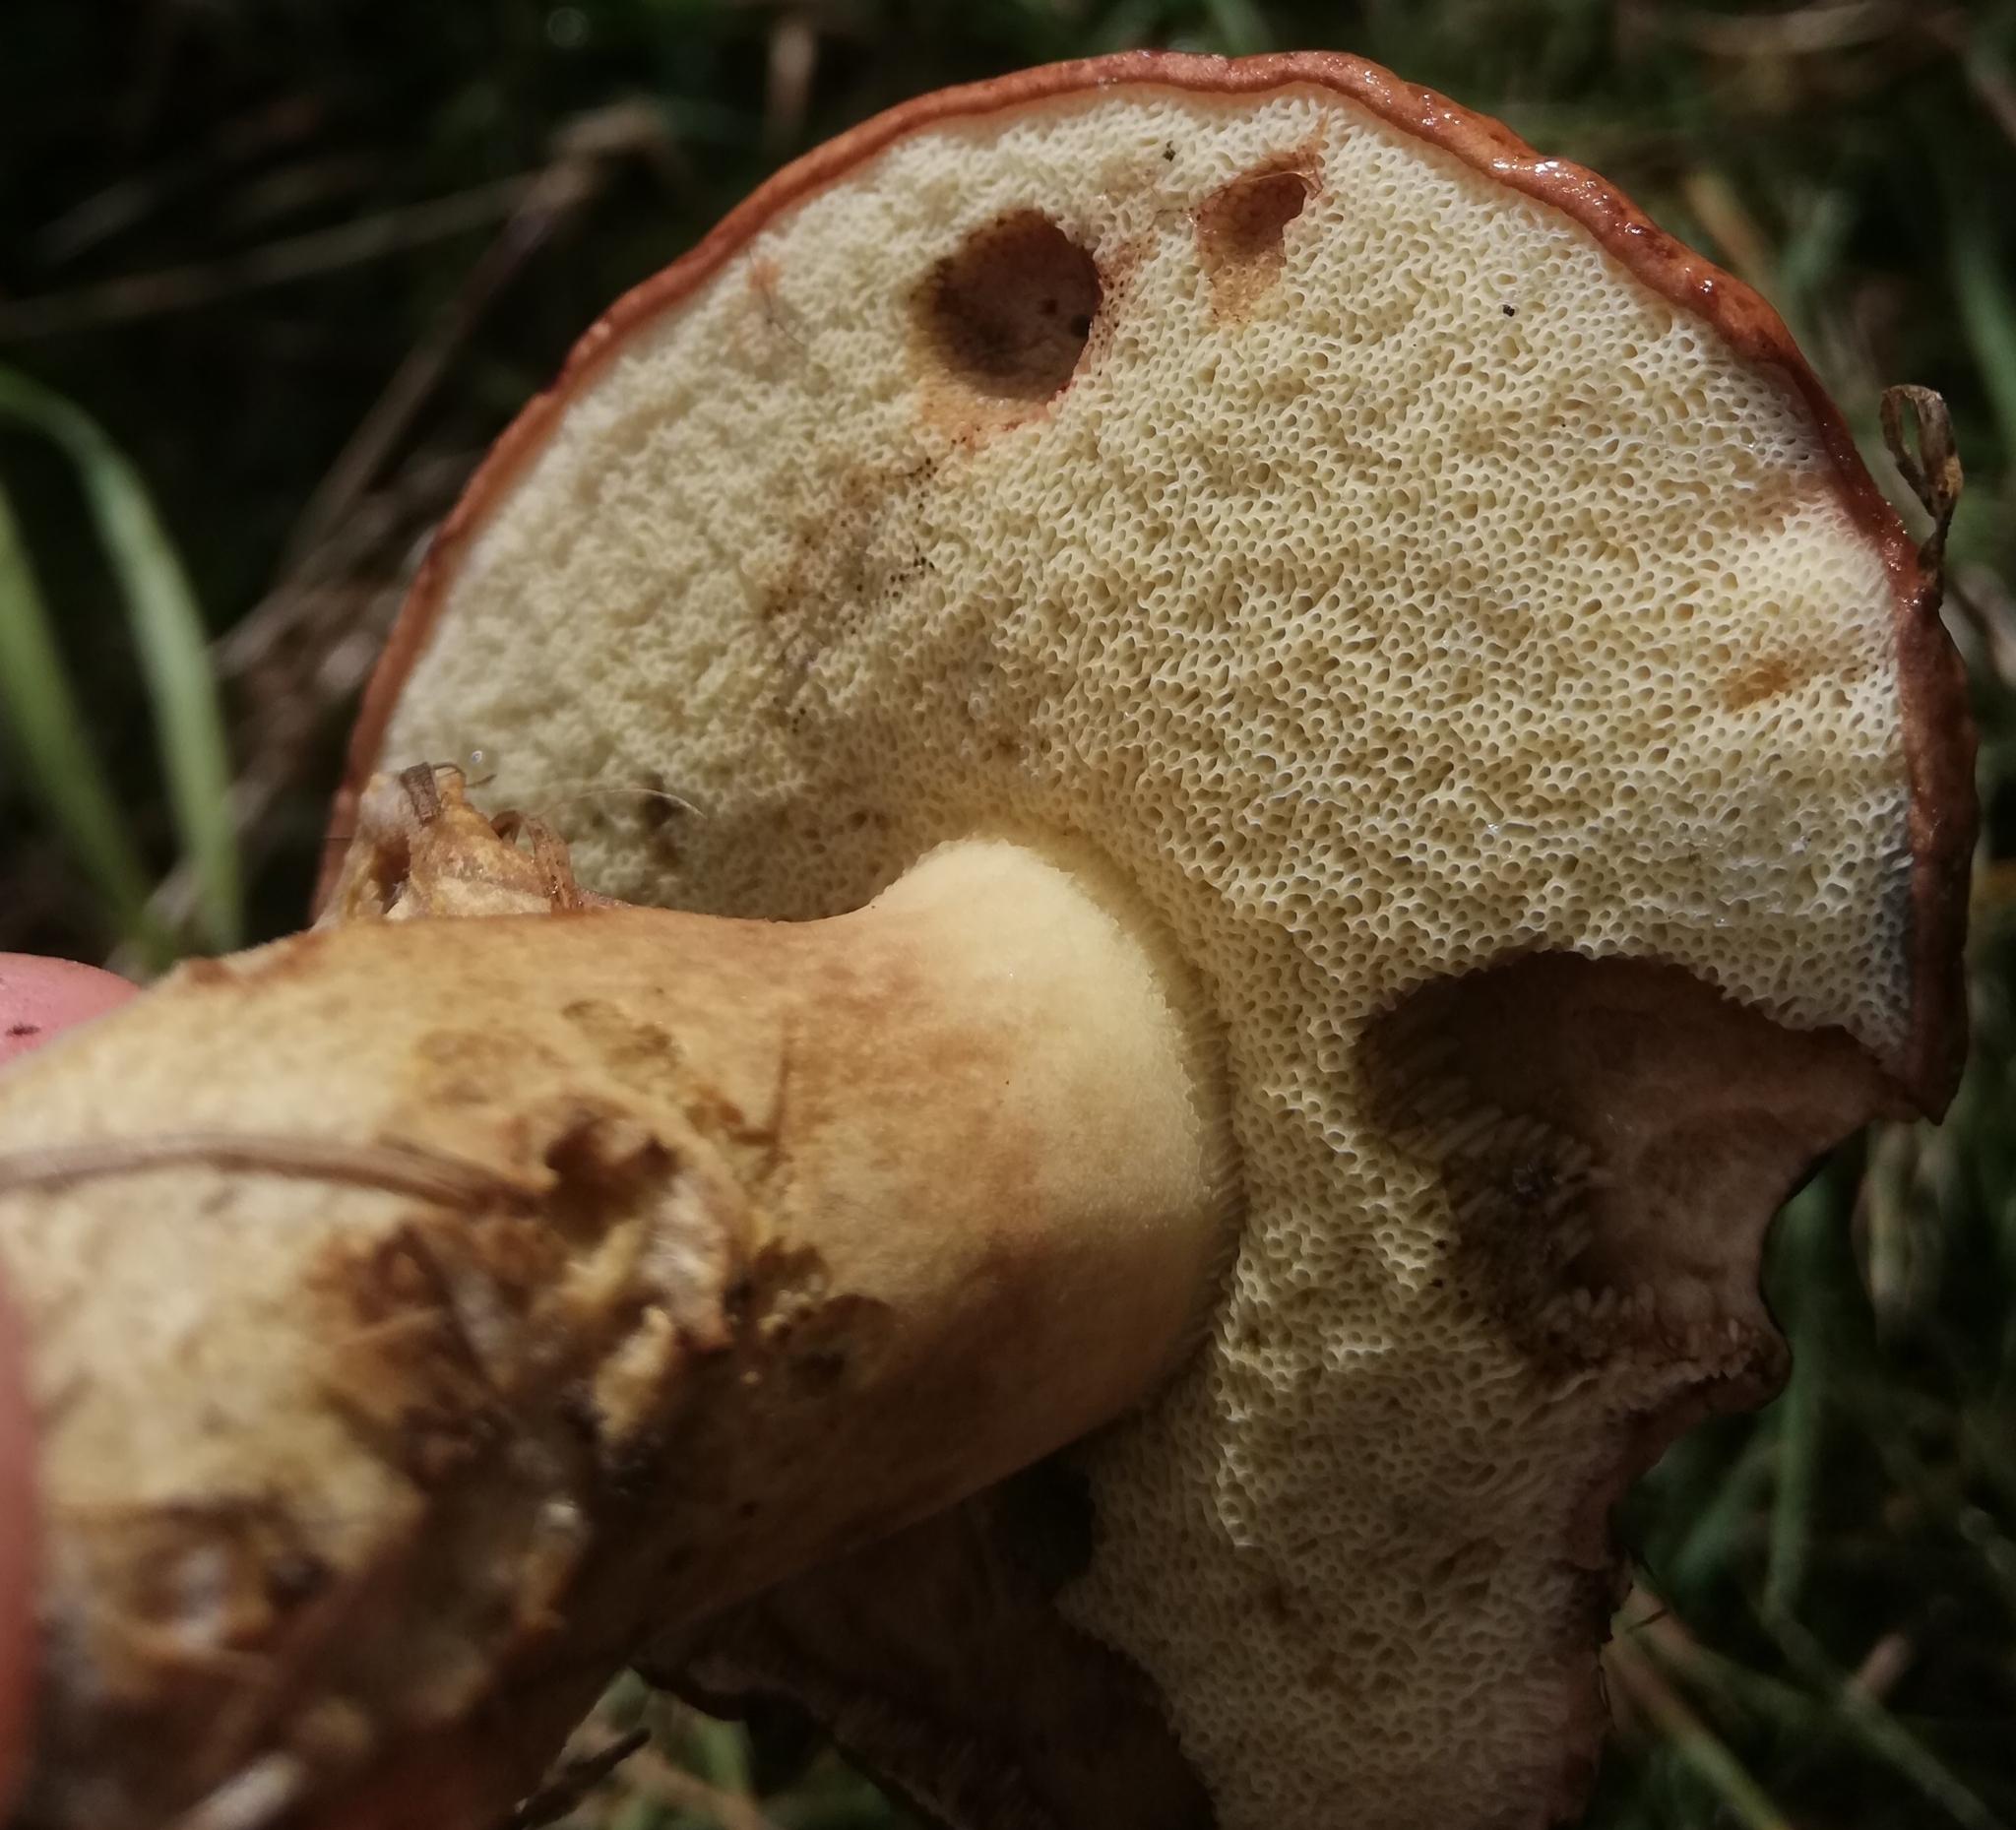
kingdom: Fungi
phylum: Basidiomycota
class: Agaricomycetes
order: Boletales
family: Boletaceae
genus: Imleria
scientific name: Imleria badia
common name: Bay bolete
